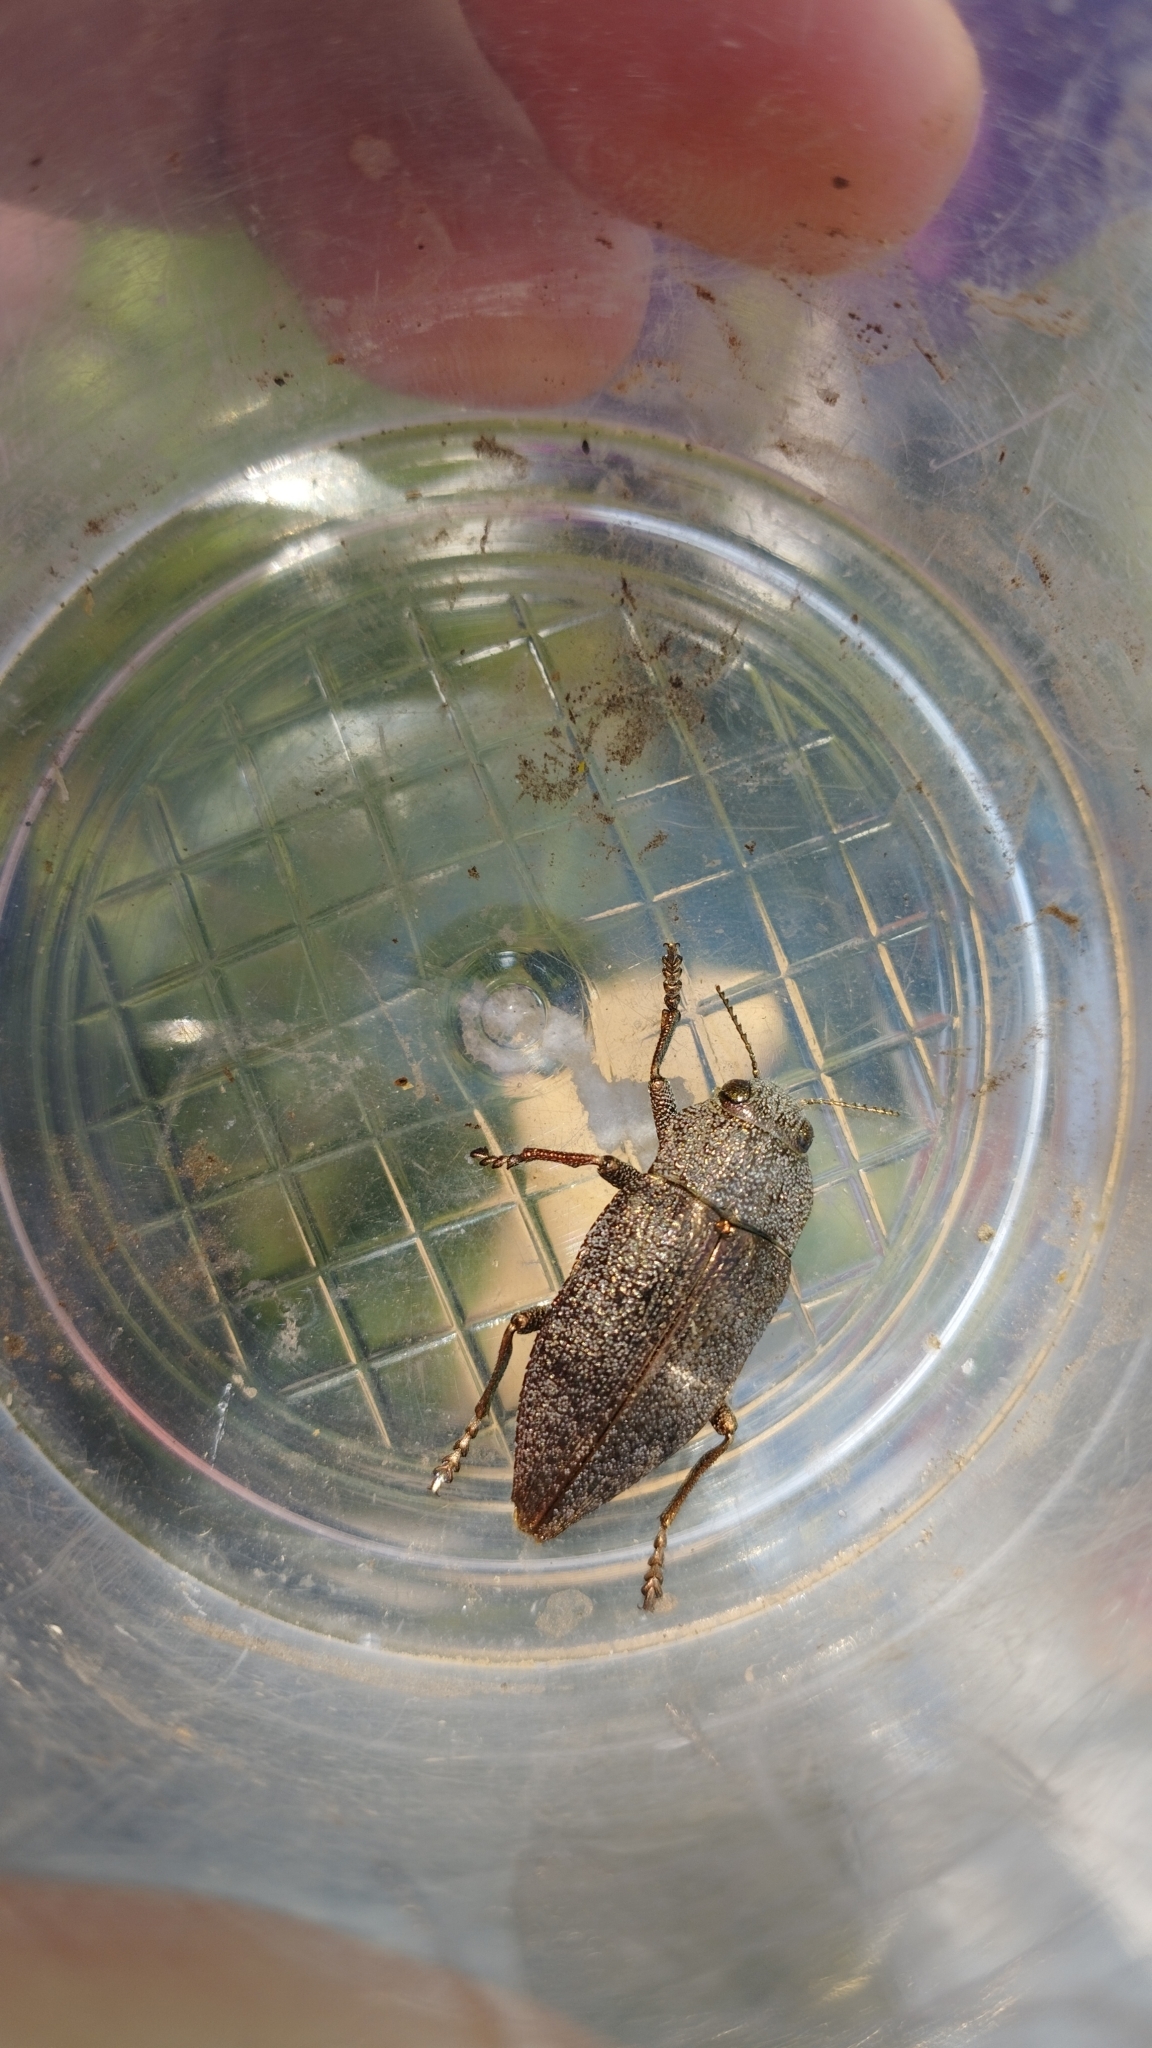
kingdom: Animalia
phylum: Arthropoda
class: Insecta
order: Coleoptera
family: Buprestidae
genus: Dicerca
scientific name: Dicerca aenea
